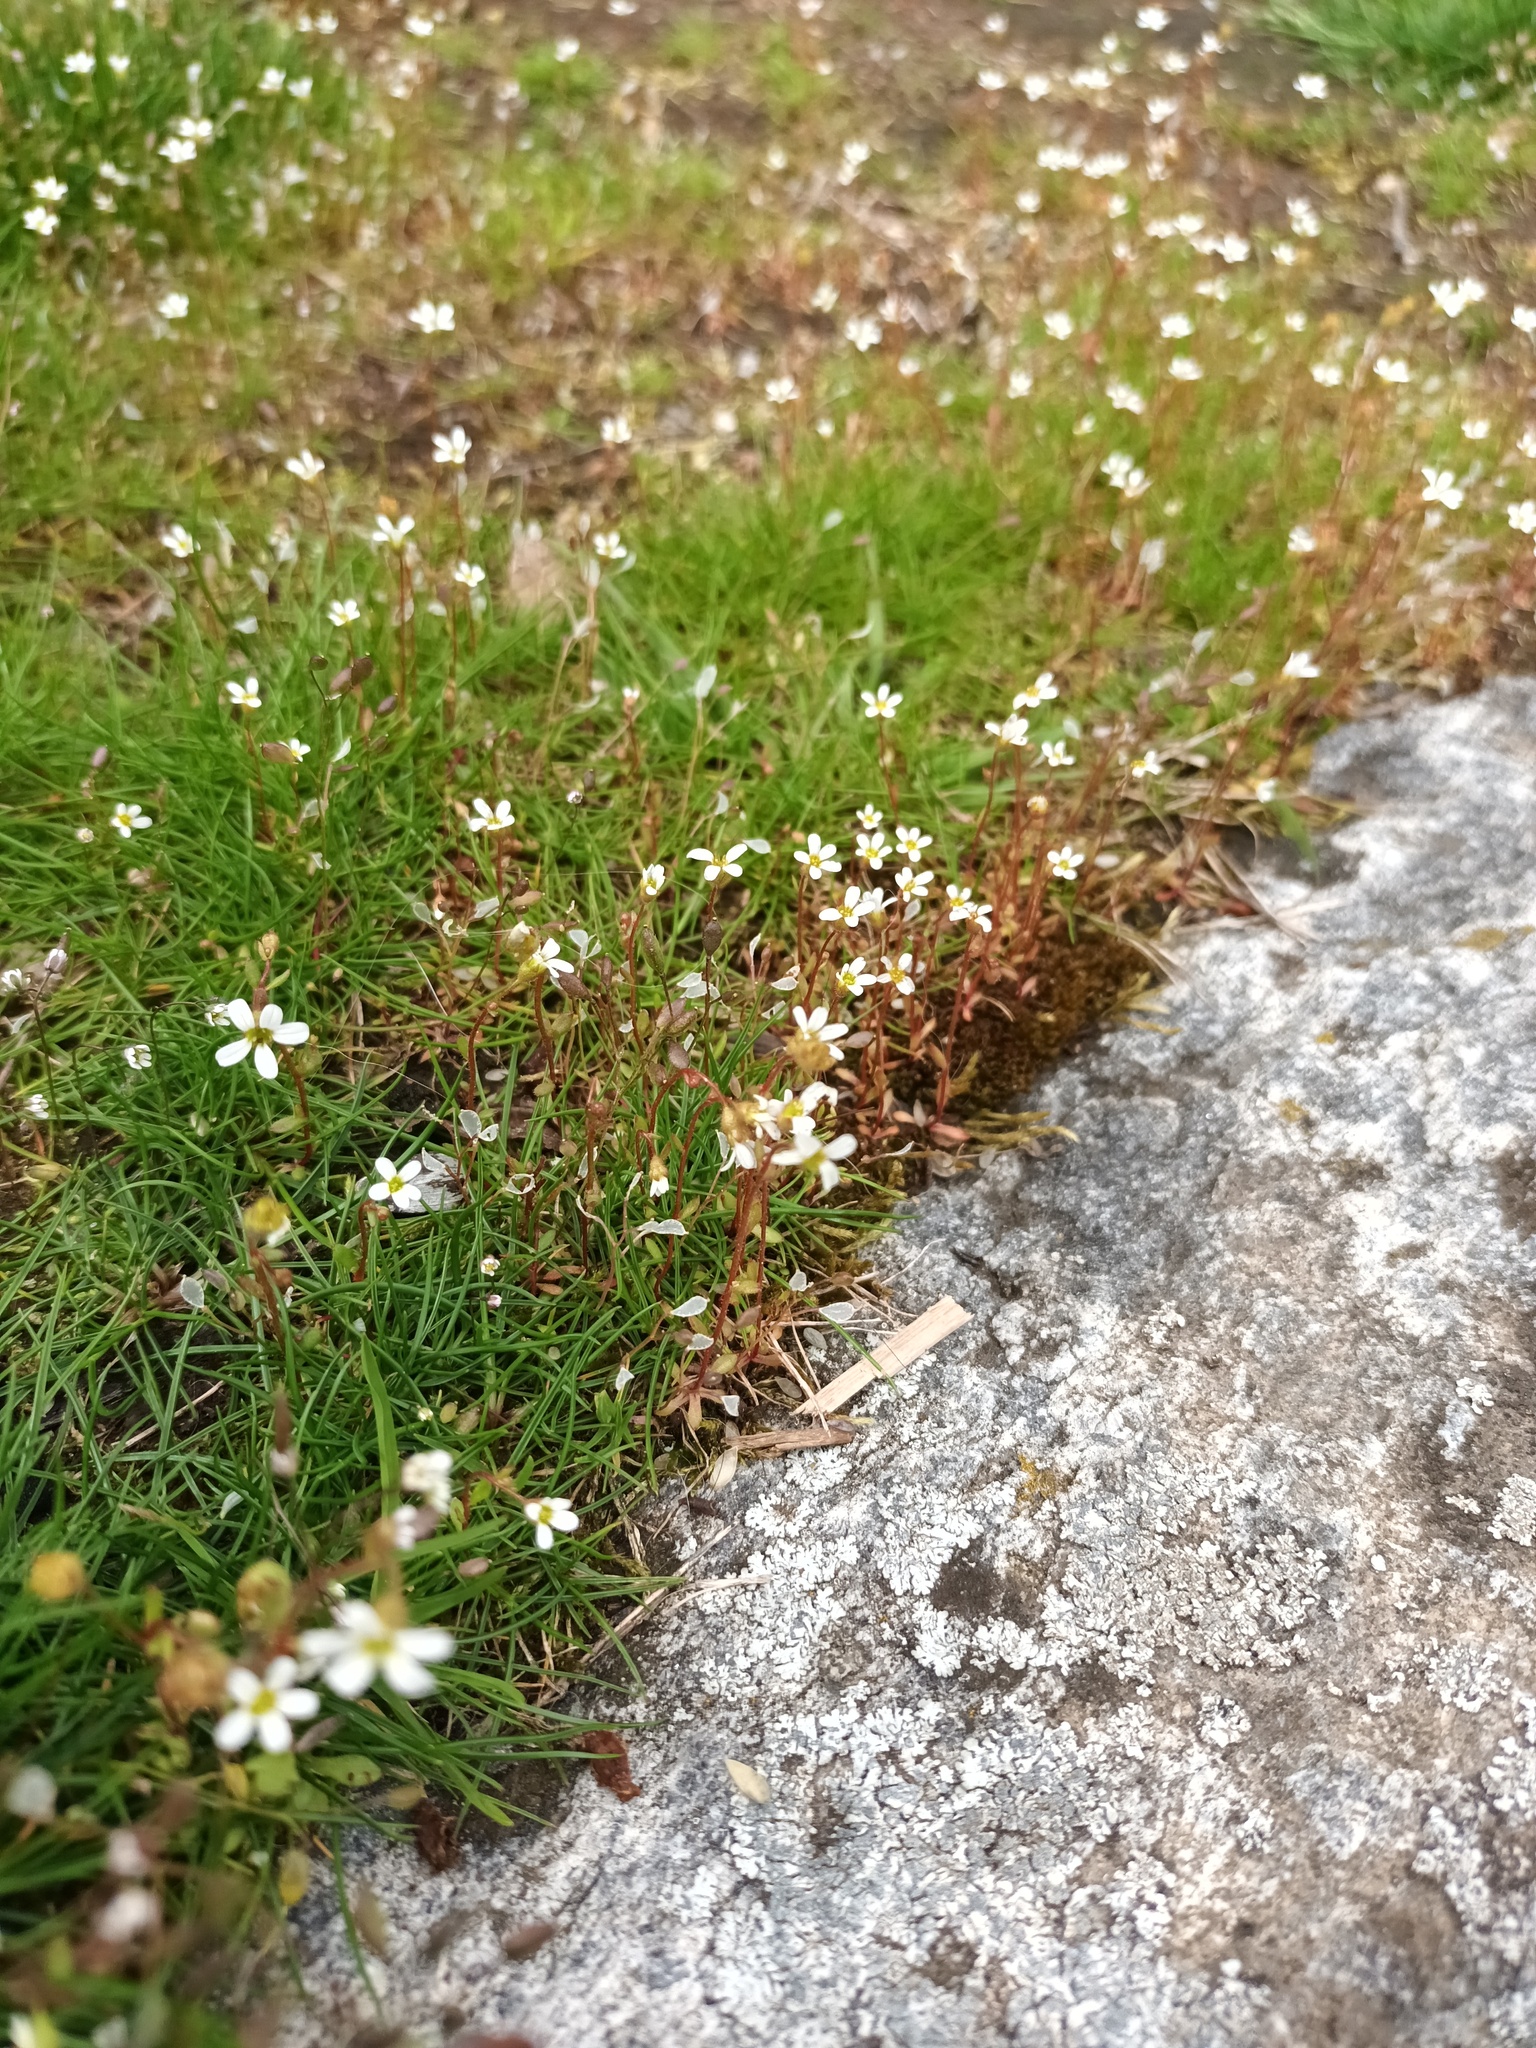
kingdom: Plantae
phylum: Tracheophyta
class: Magnoliopsida
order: Saxifragales
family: Saxifragaceae
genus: Saxifraga
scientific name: Saxifraga tridactylites
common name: Rue-leaved saxifrage
